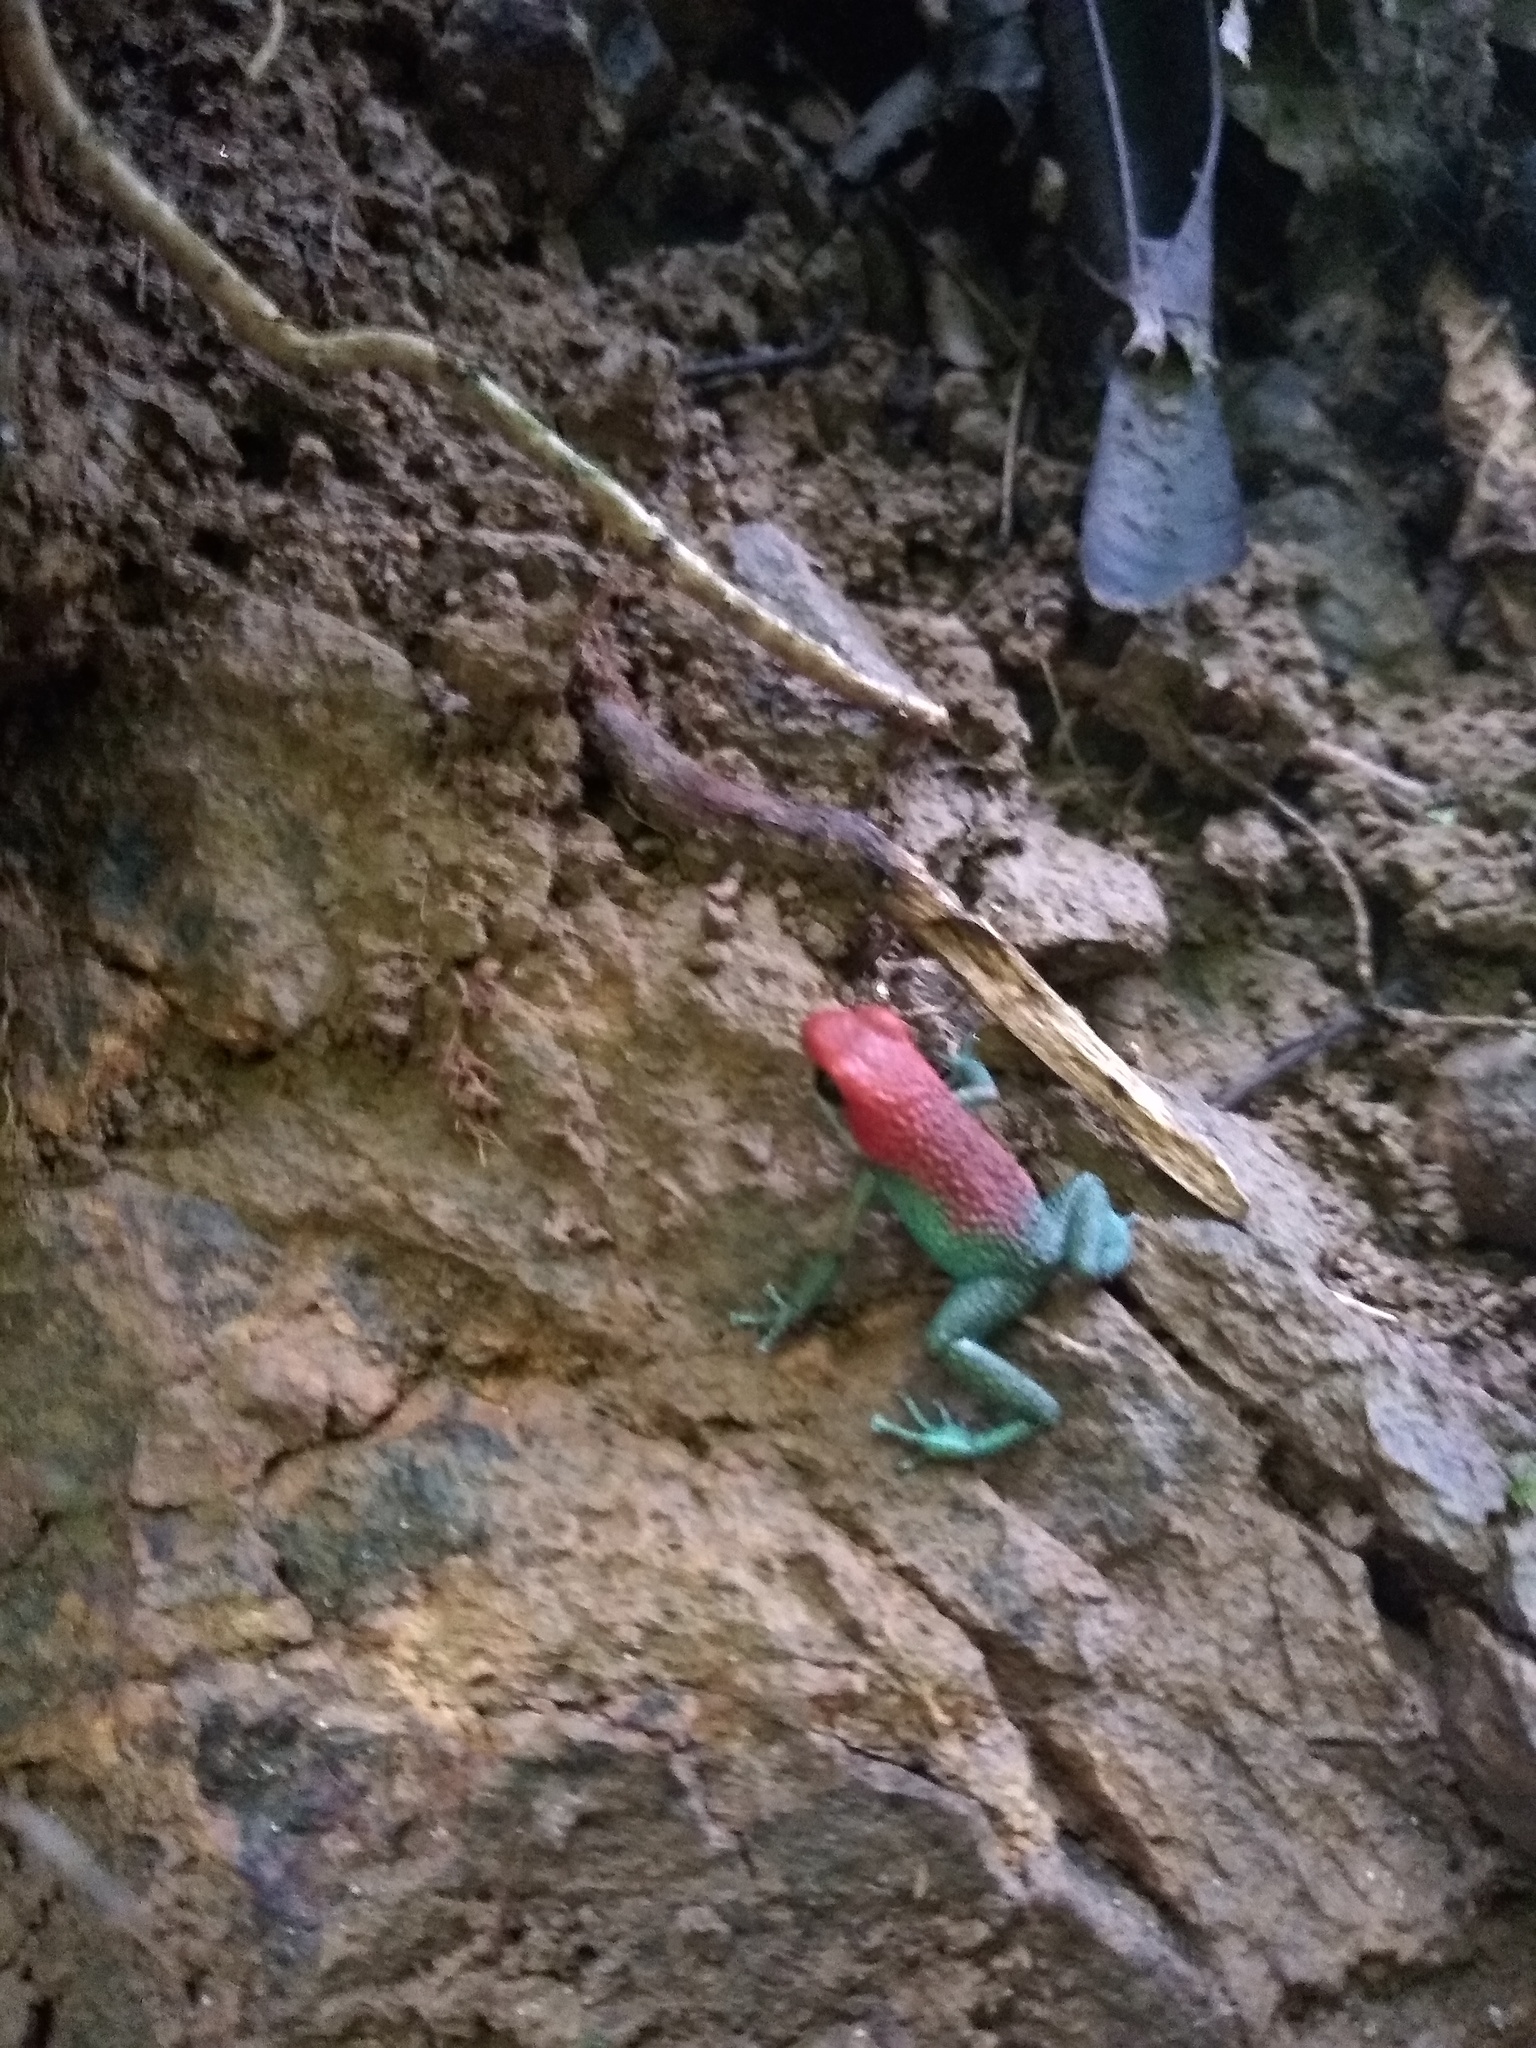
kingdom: Animalia
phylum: Chordata
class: Amphibia
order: Anura
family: Dendrobatidae
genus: Oophaga
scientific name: Oophaga granulifera
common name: Granular poison frog
